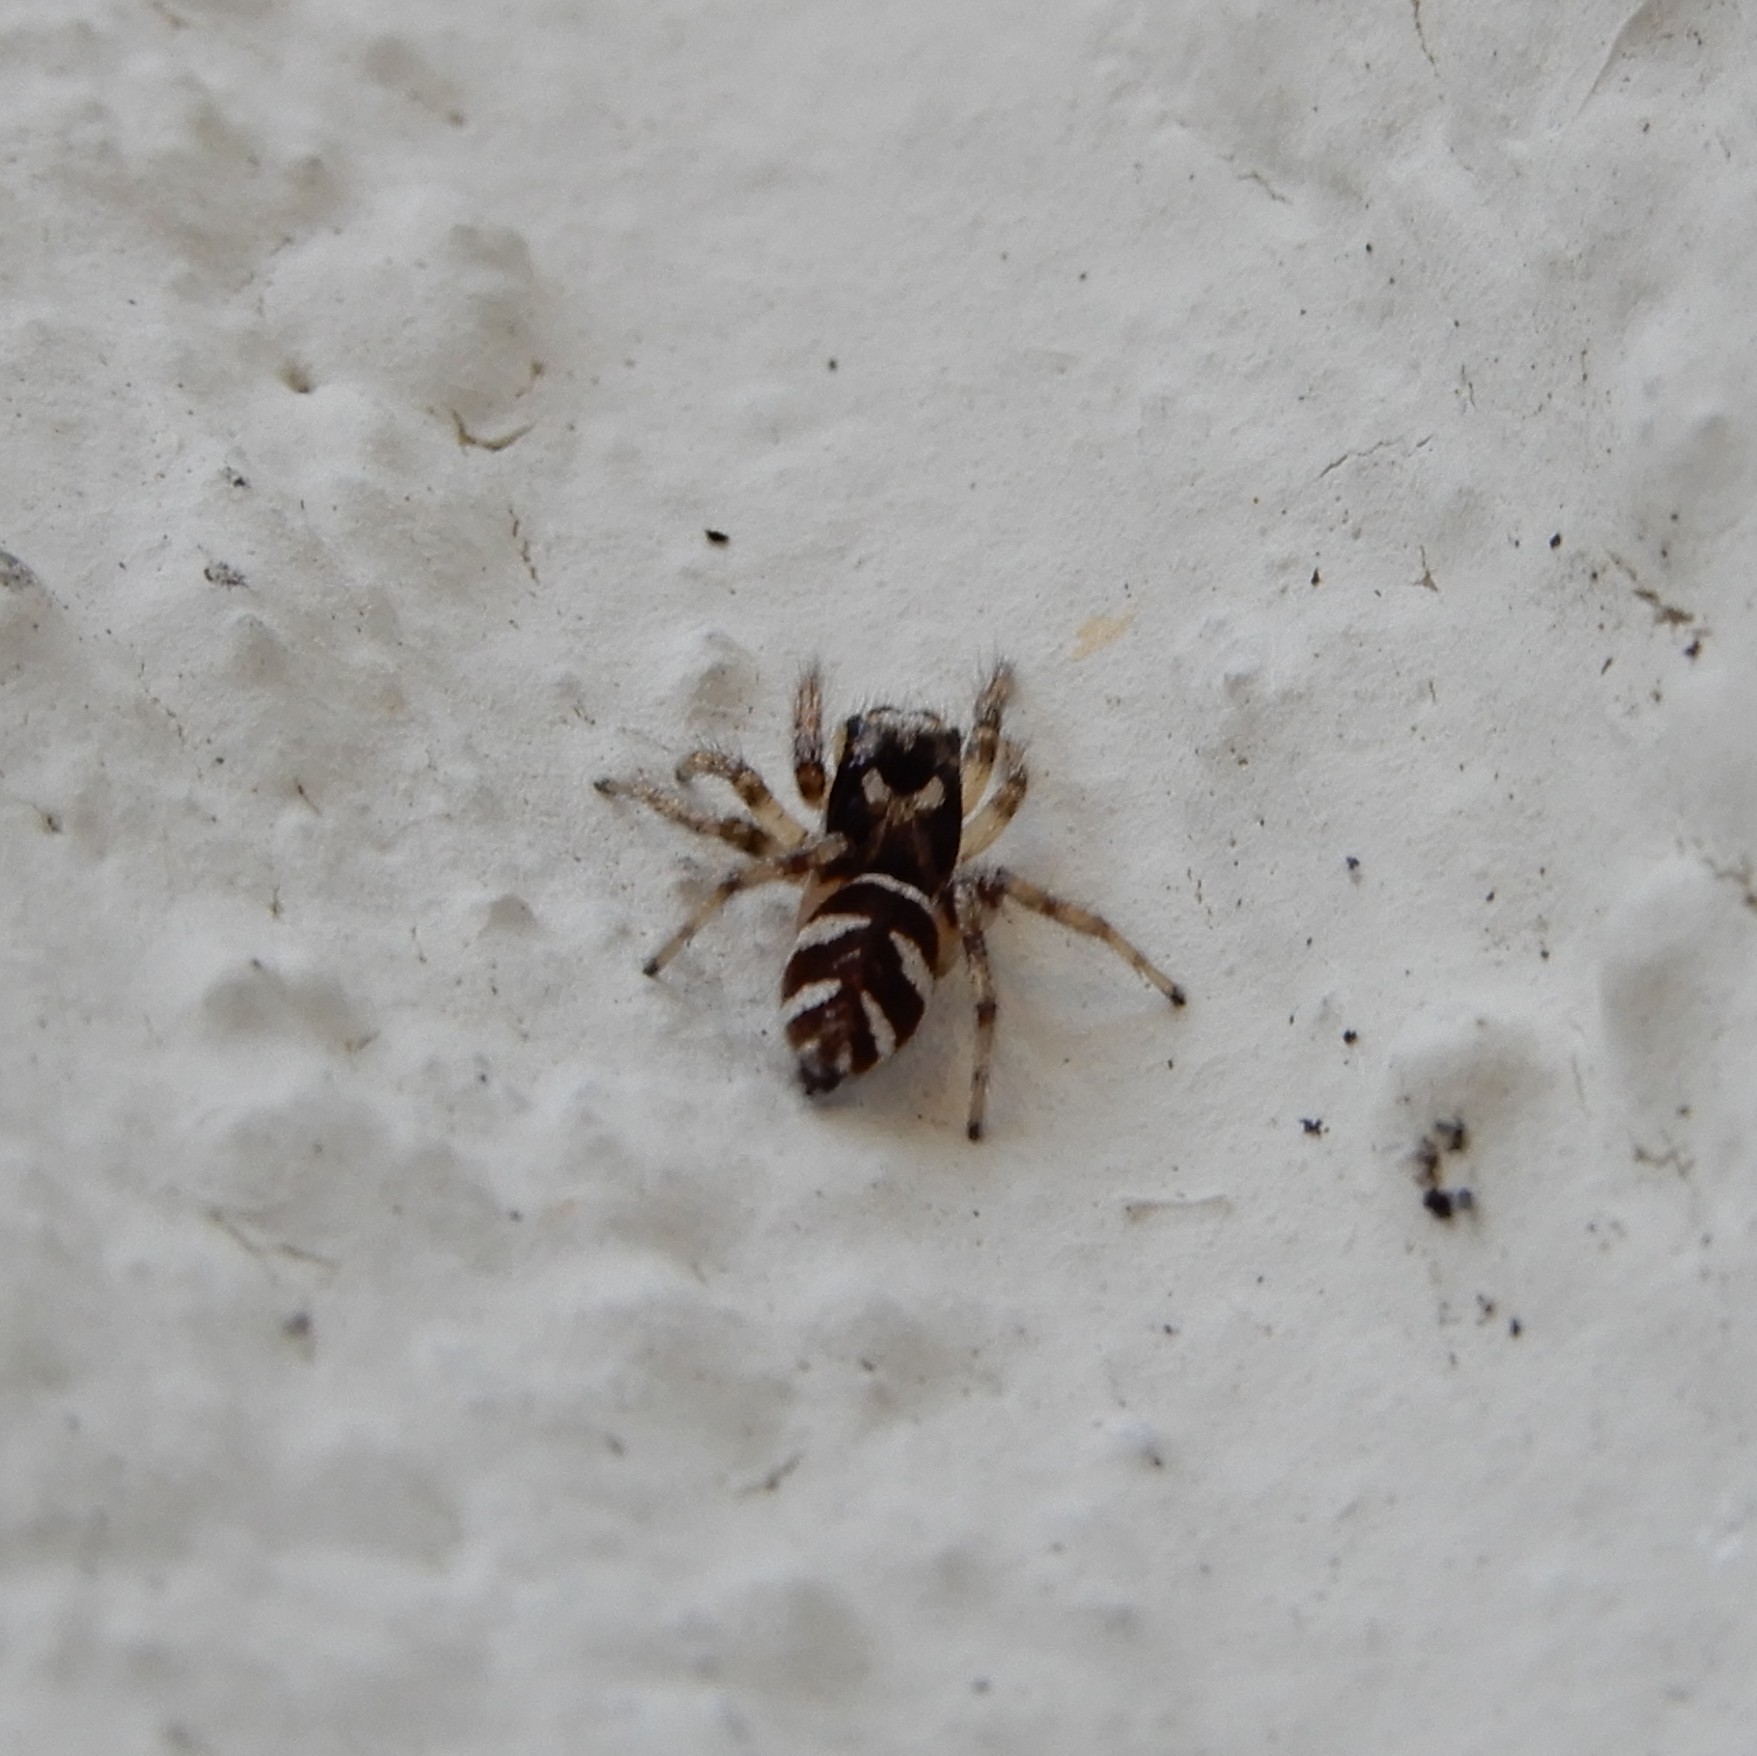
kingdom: Animalia
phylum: Arthropoda
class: Arachnida
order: Araneae
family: Salticidae
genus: Salticus
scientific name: Salticus scenicus
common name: Zebra jumper
